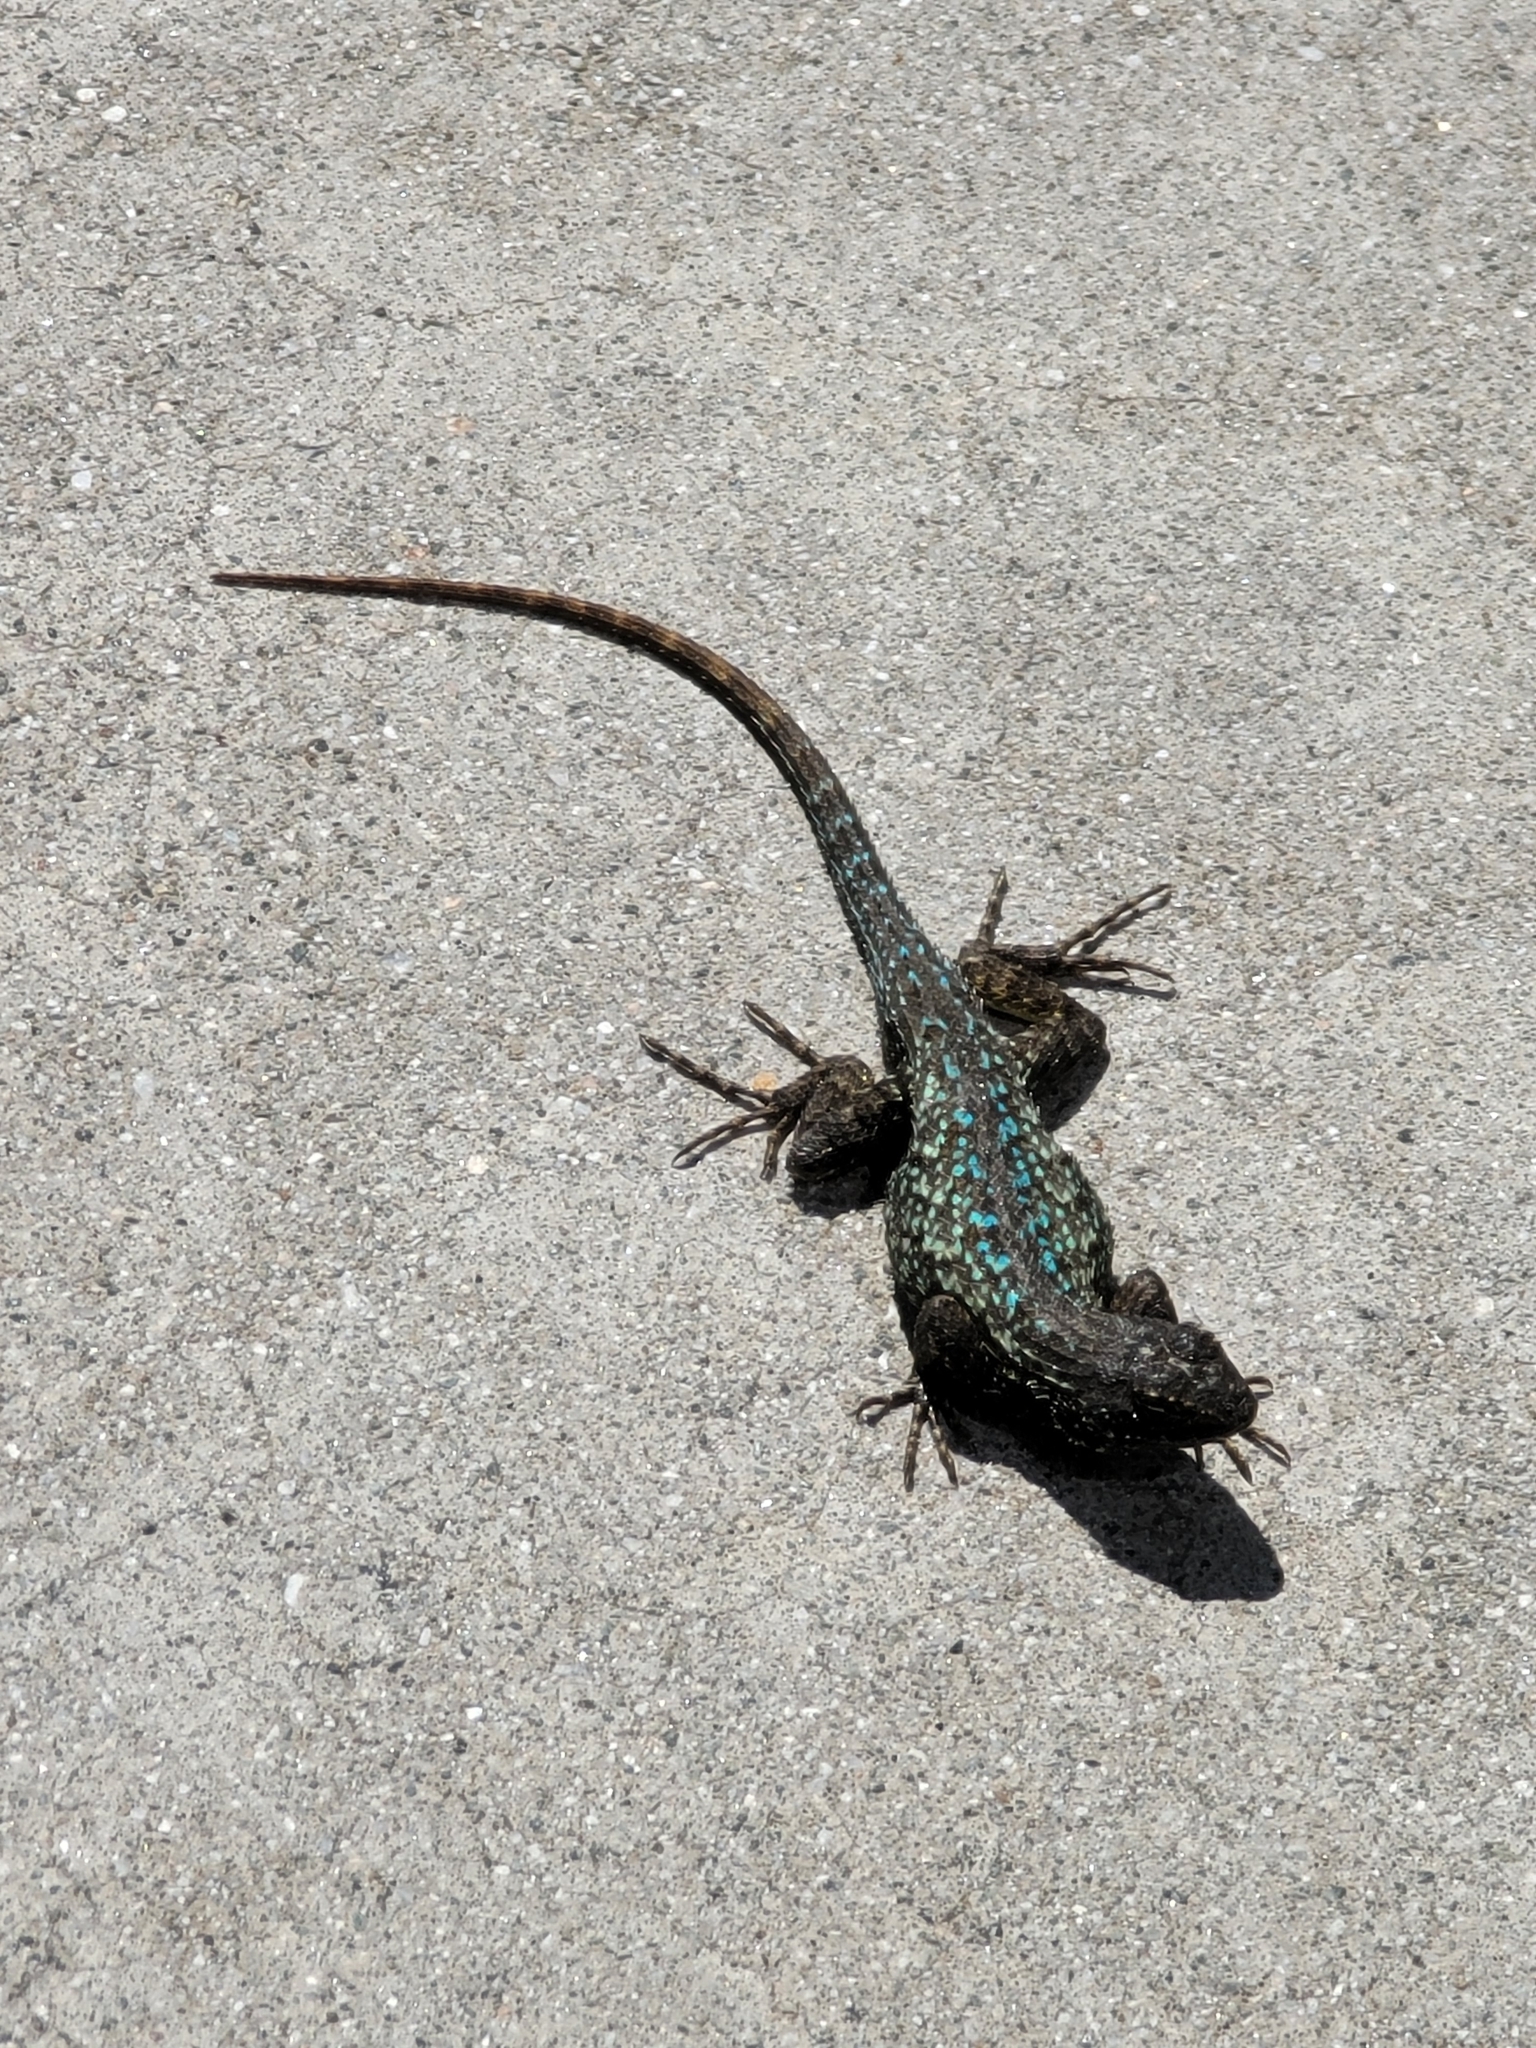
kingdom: Animalia
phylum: Chordata
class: Squamata
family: Phrynosomatidae
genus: Sceloporus
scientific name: Sceloporus occidentalis
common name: Western fence lizard
